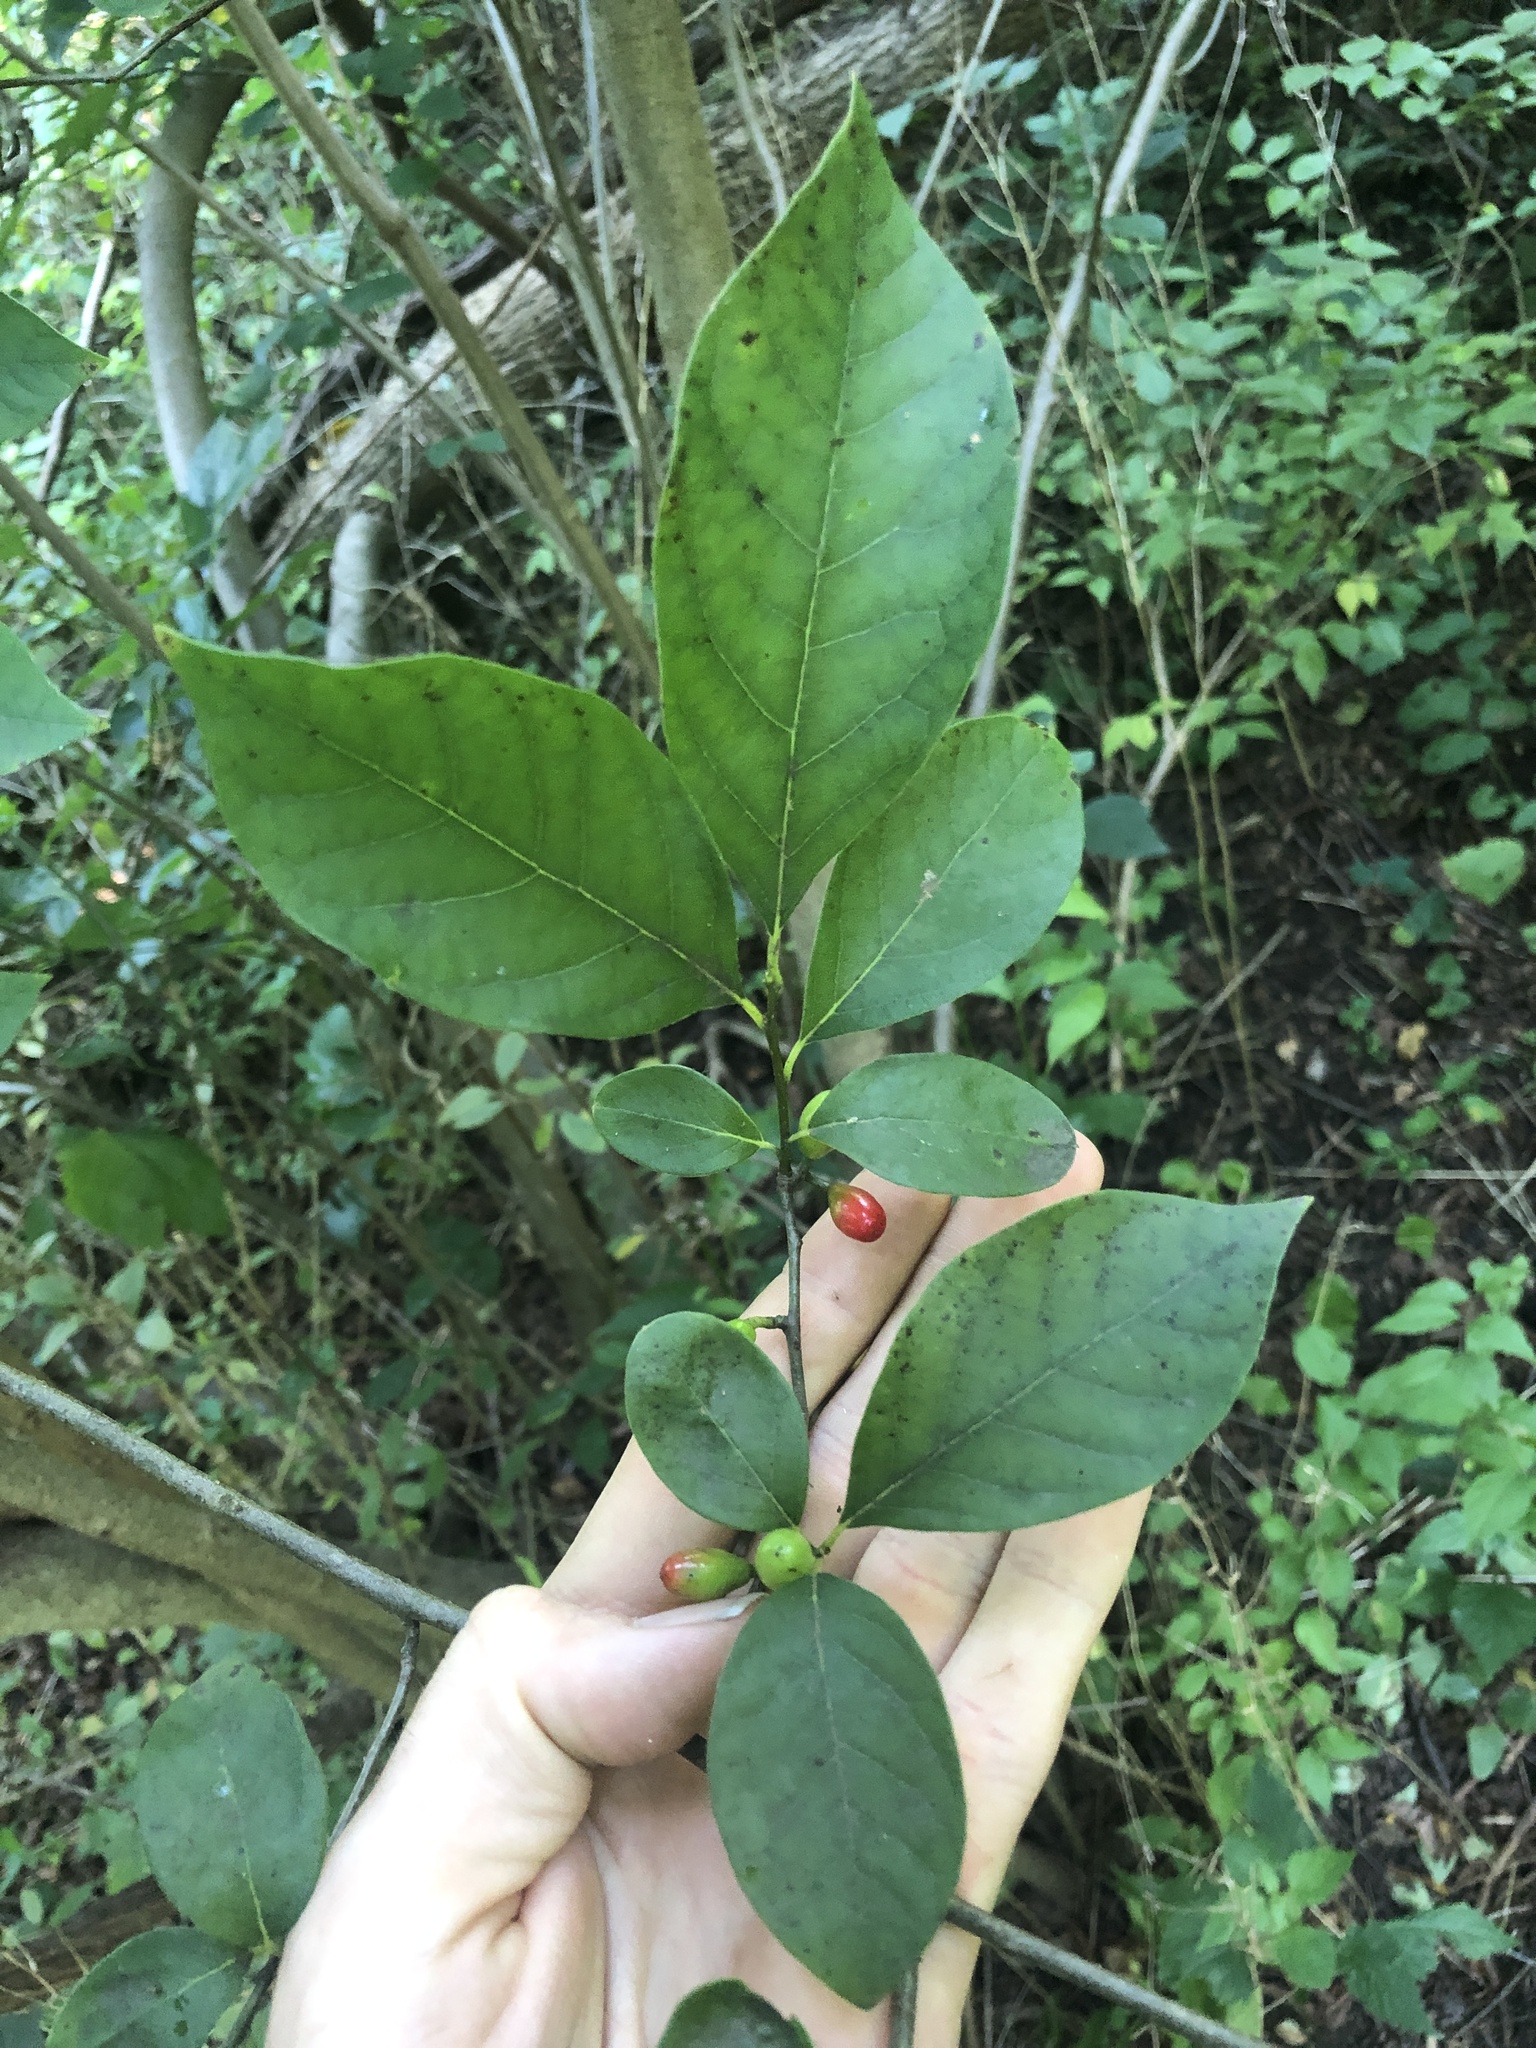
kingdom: Plantae
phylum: Tracheophyta
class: Magnoliopsida
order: Laurales
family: Lauraceae
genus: Lindera
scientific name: Lindera benzoin
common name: Spicebush
